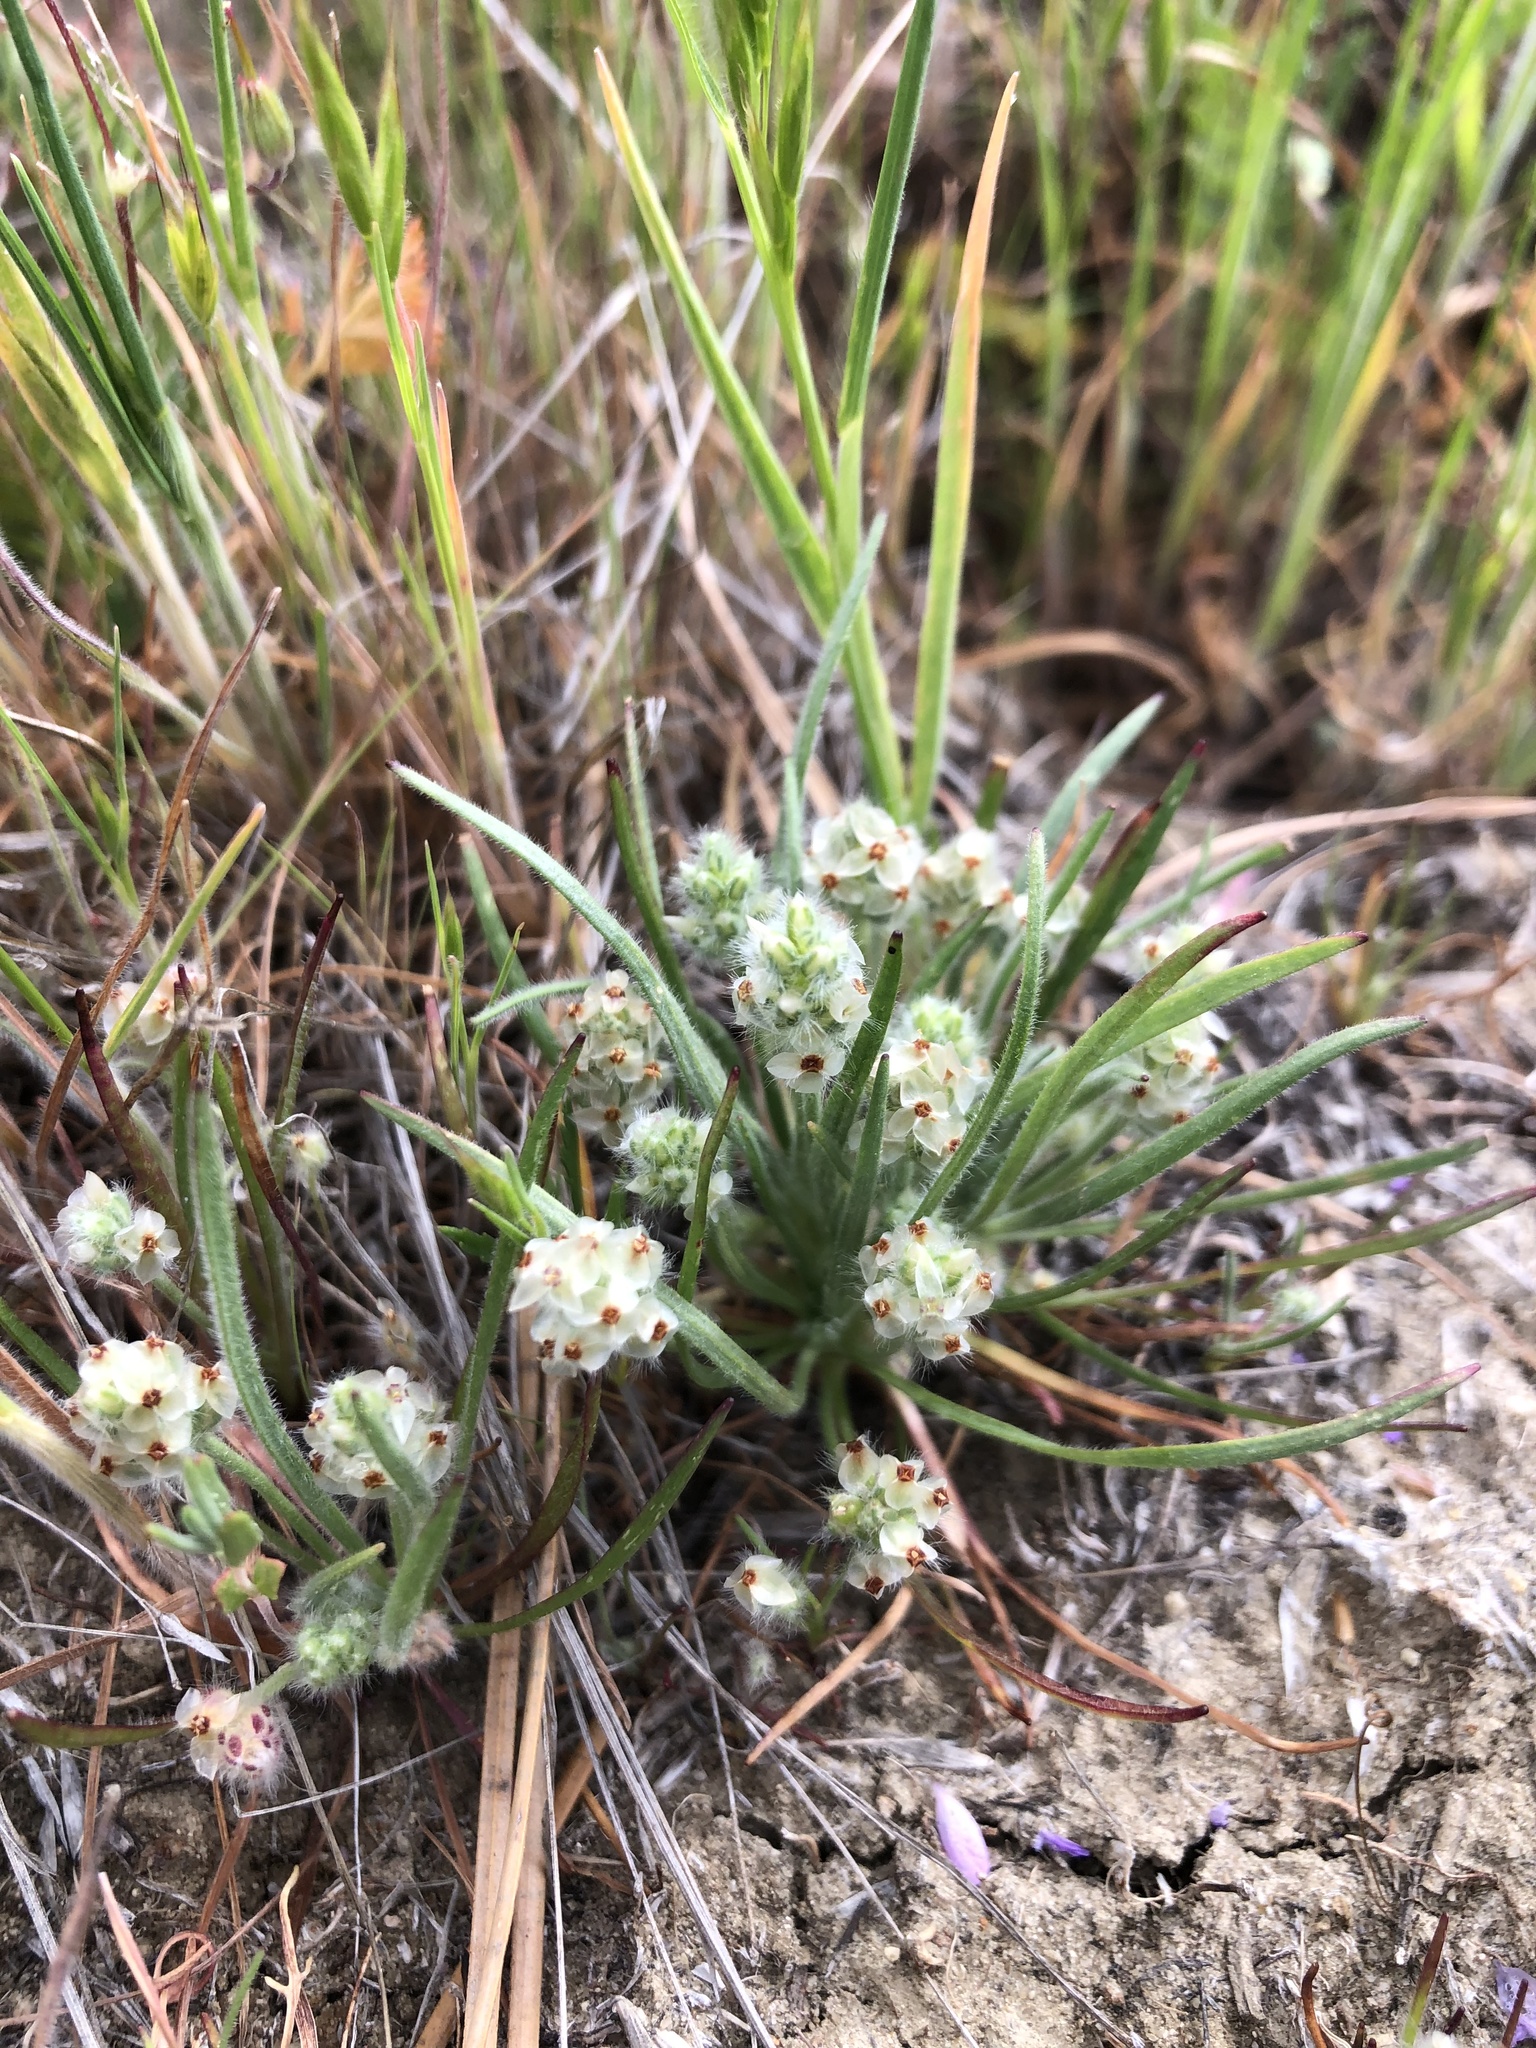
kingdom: Plantae
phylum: Tracheophyta
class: Magnoliopsida
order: Lamiales
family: Plantaginaceae
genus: Plantago
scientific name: Plantago erecta
